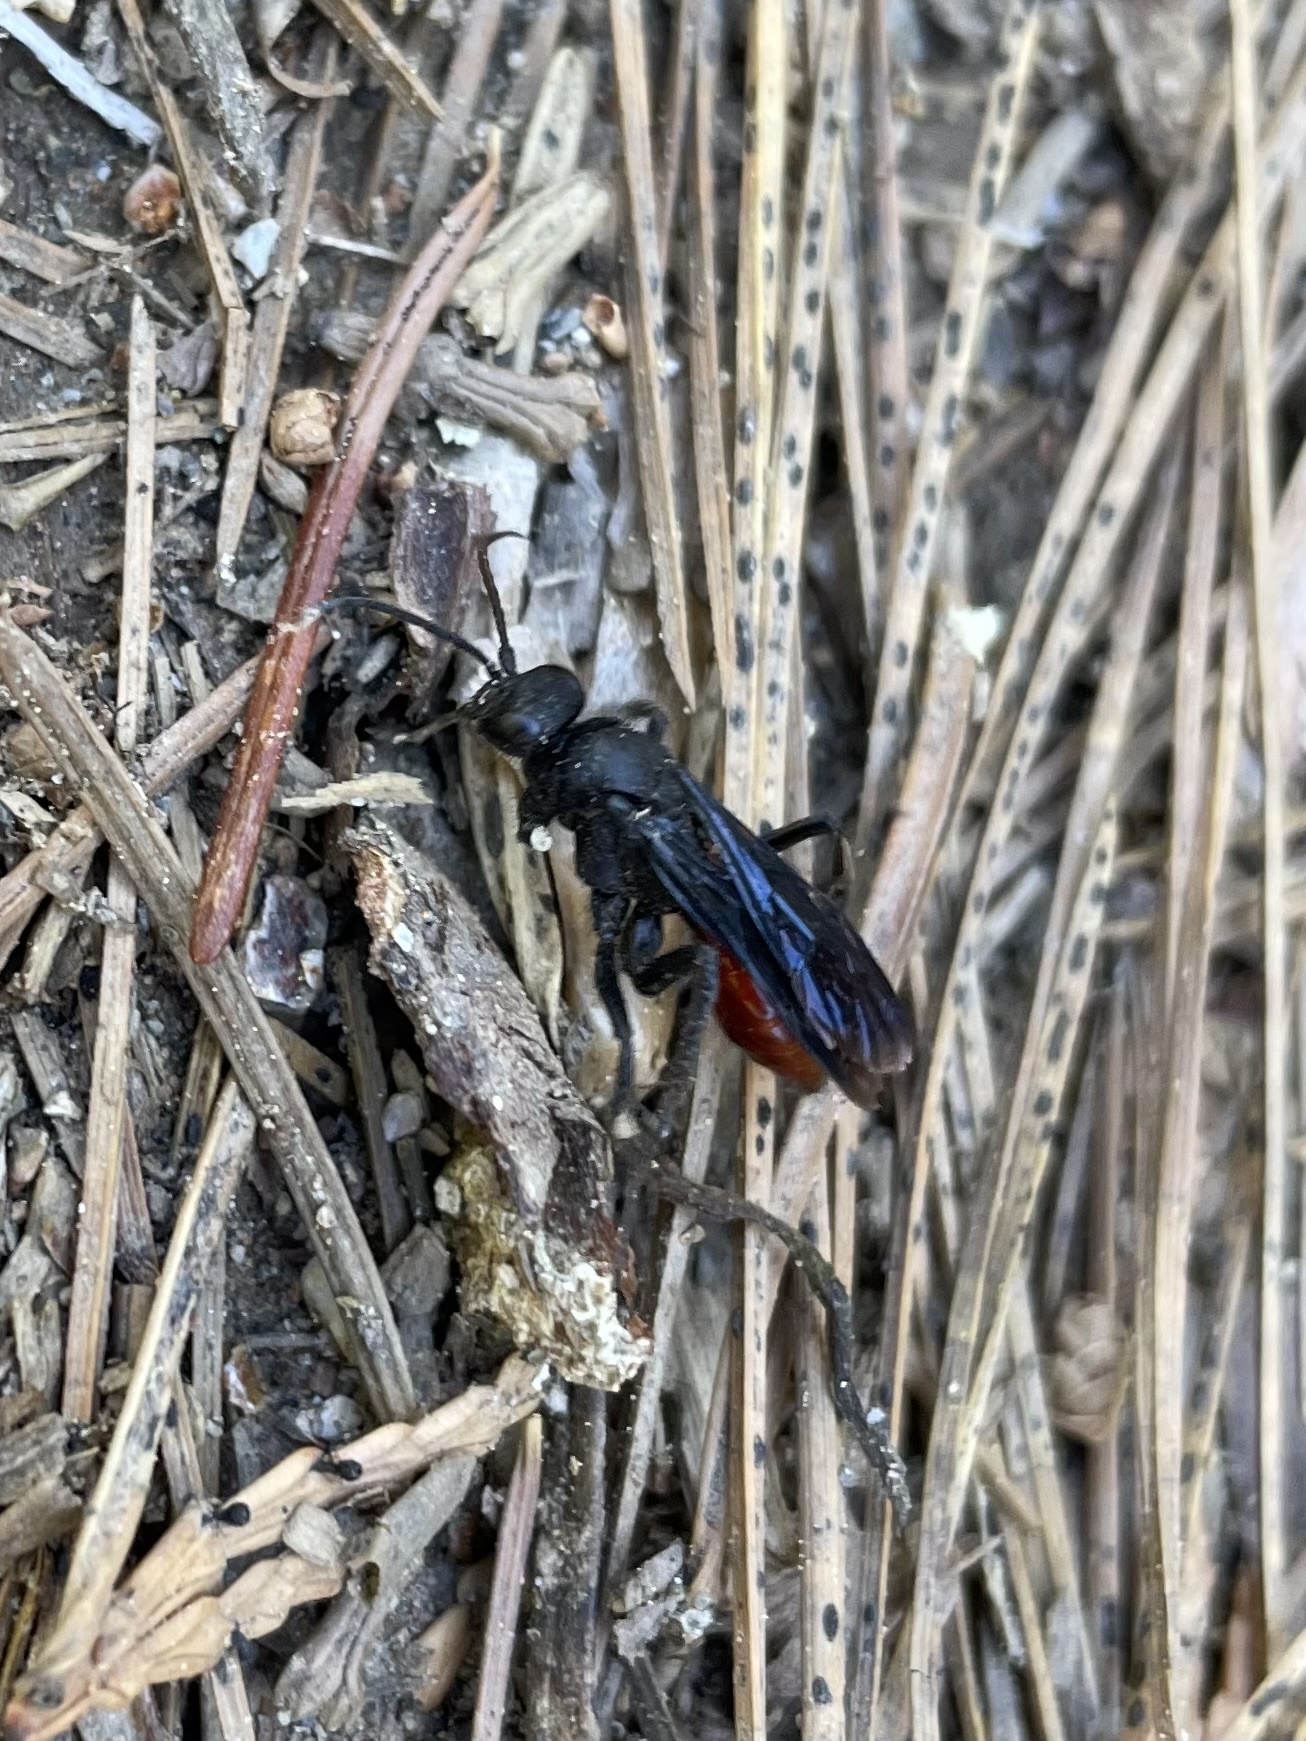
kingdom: Animalia
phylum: Arthropoda
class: Insecta
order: Hymenoptera
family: Pompilidae
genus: Priocnemis
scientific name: Priocnemis oregona
